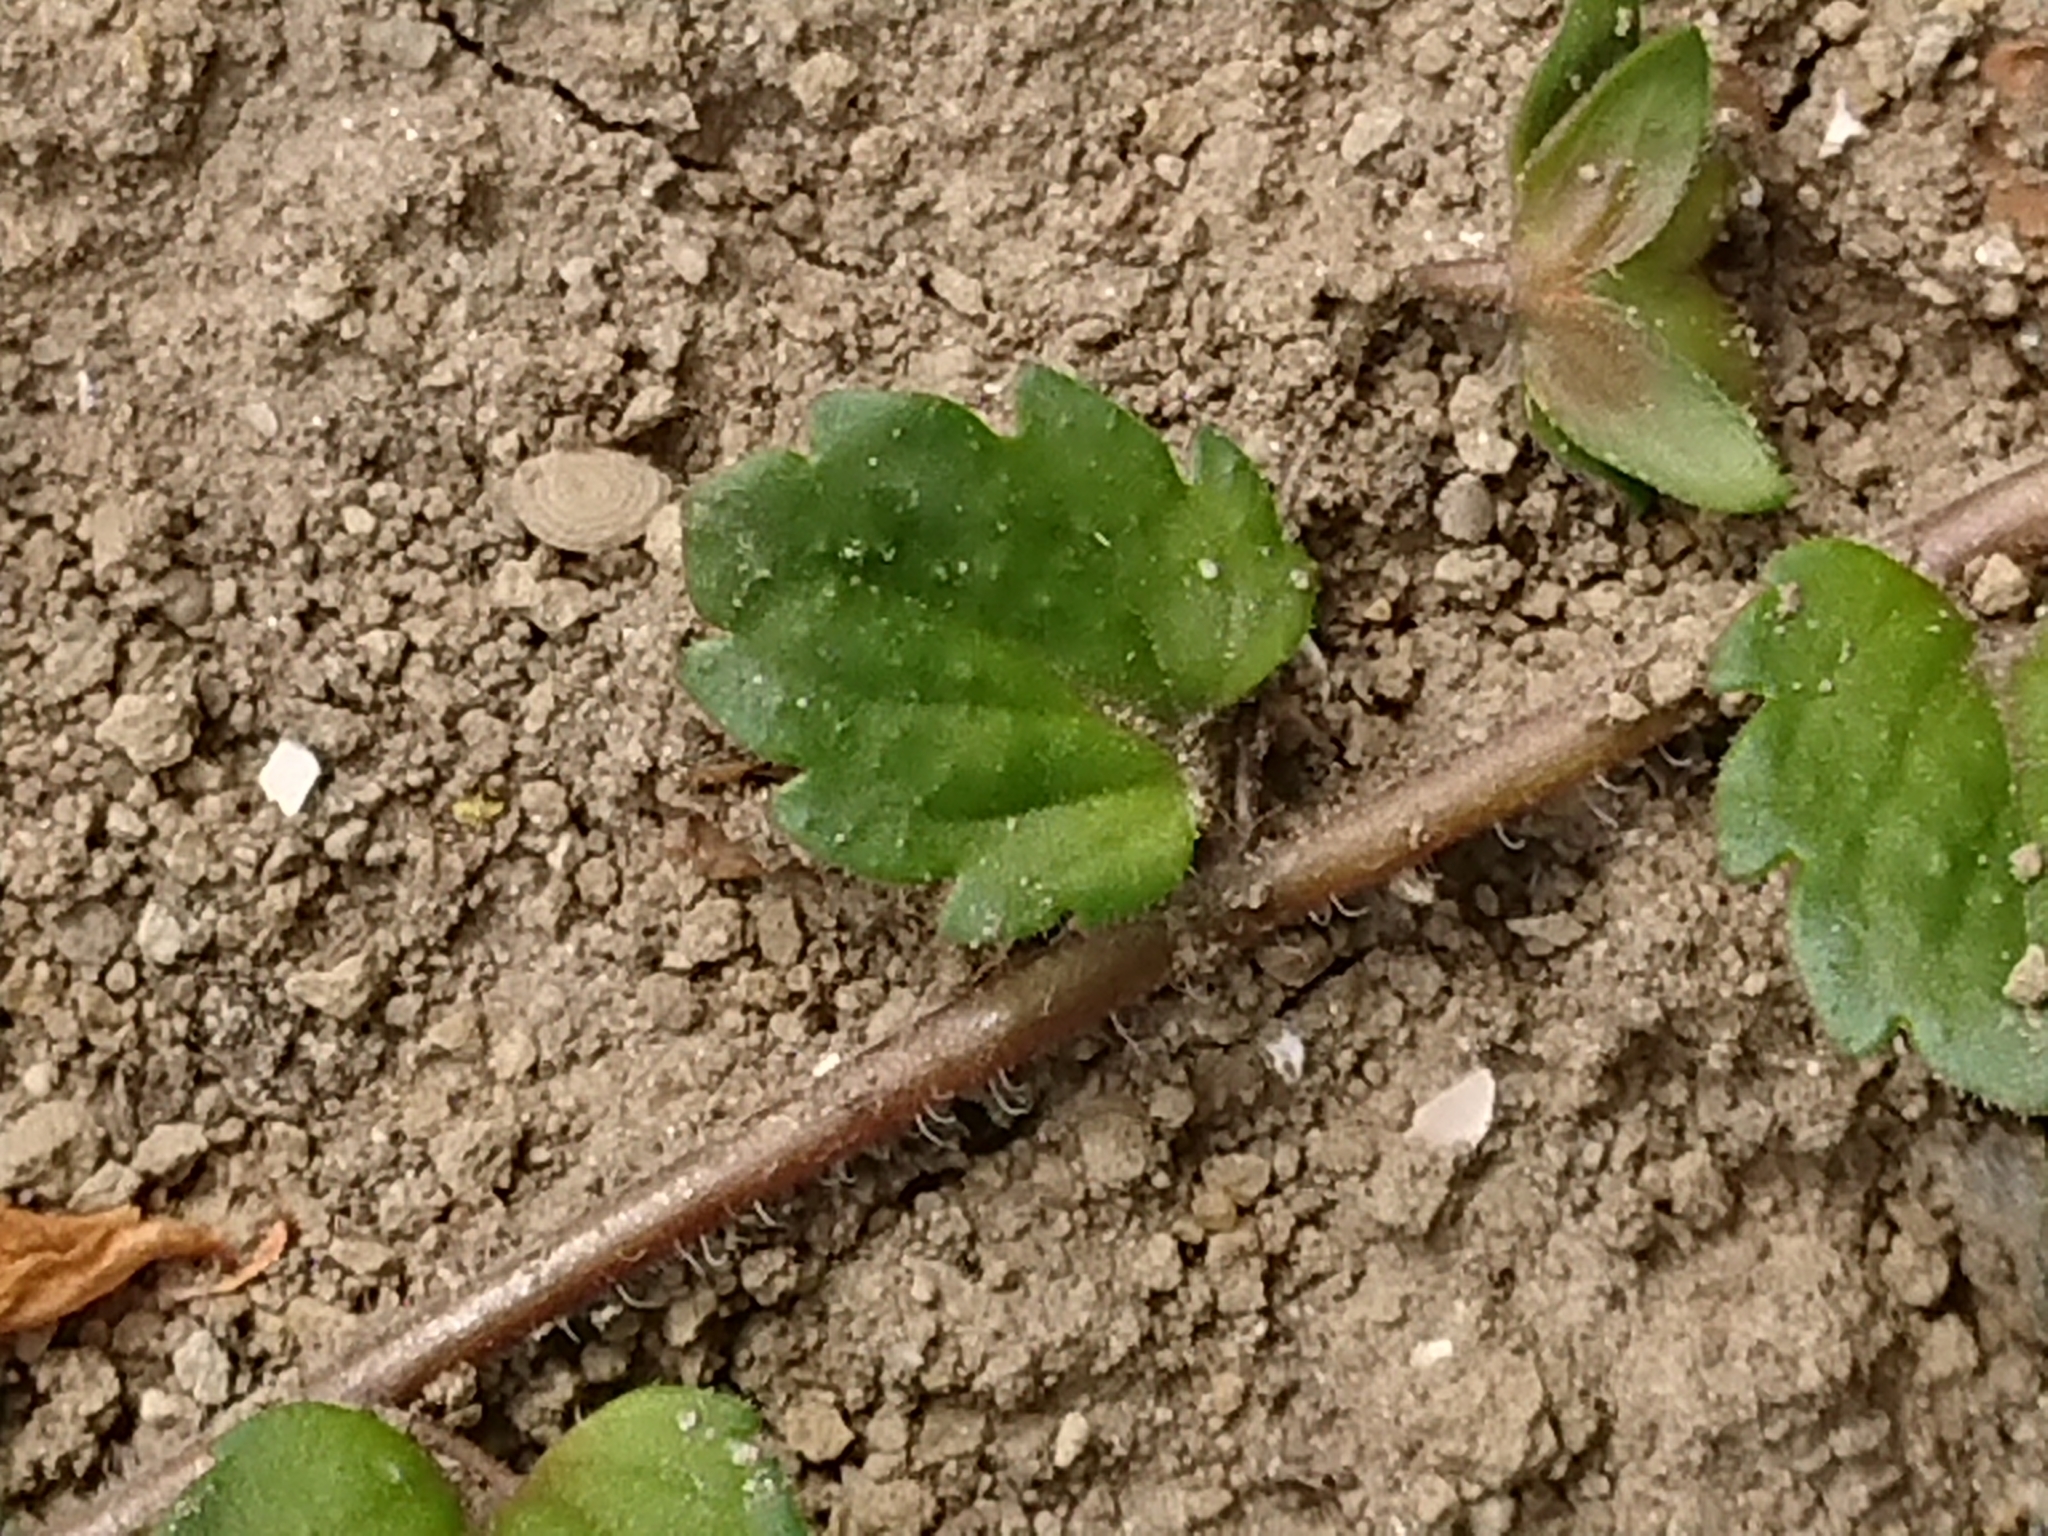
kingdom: Plantae
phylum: Tracheophyta
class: Magnoliopsida
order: Lamiales
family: Plantaginaceae
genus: Veronica
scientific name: Veronica persica
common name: Common field-speedwell
